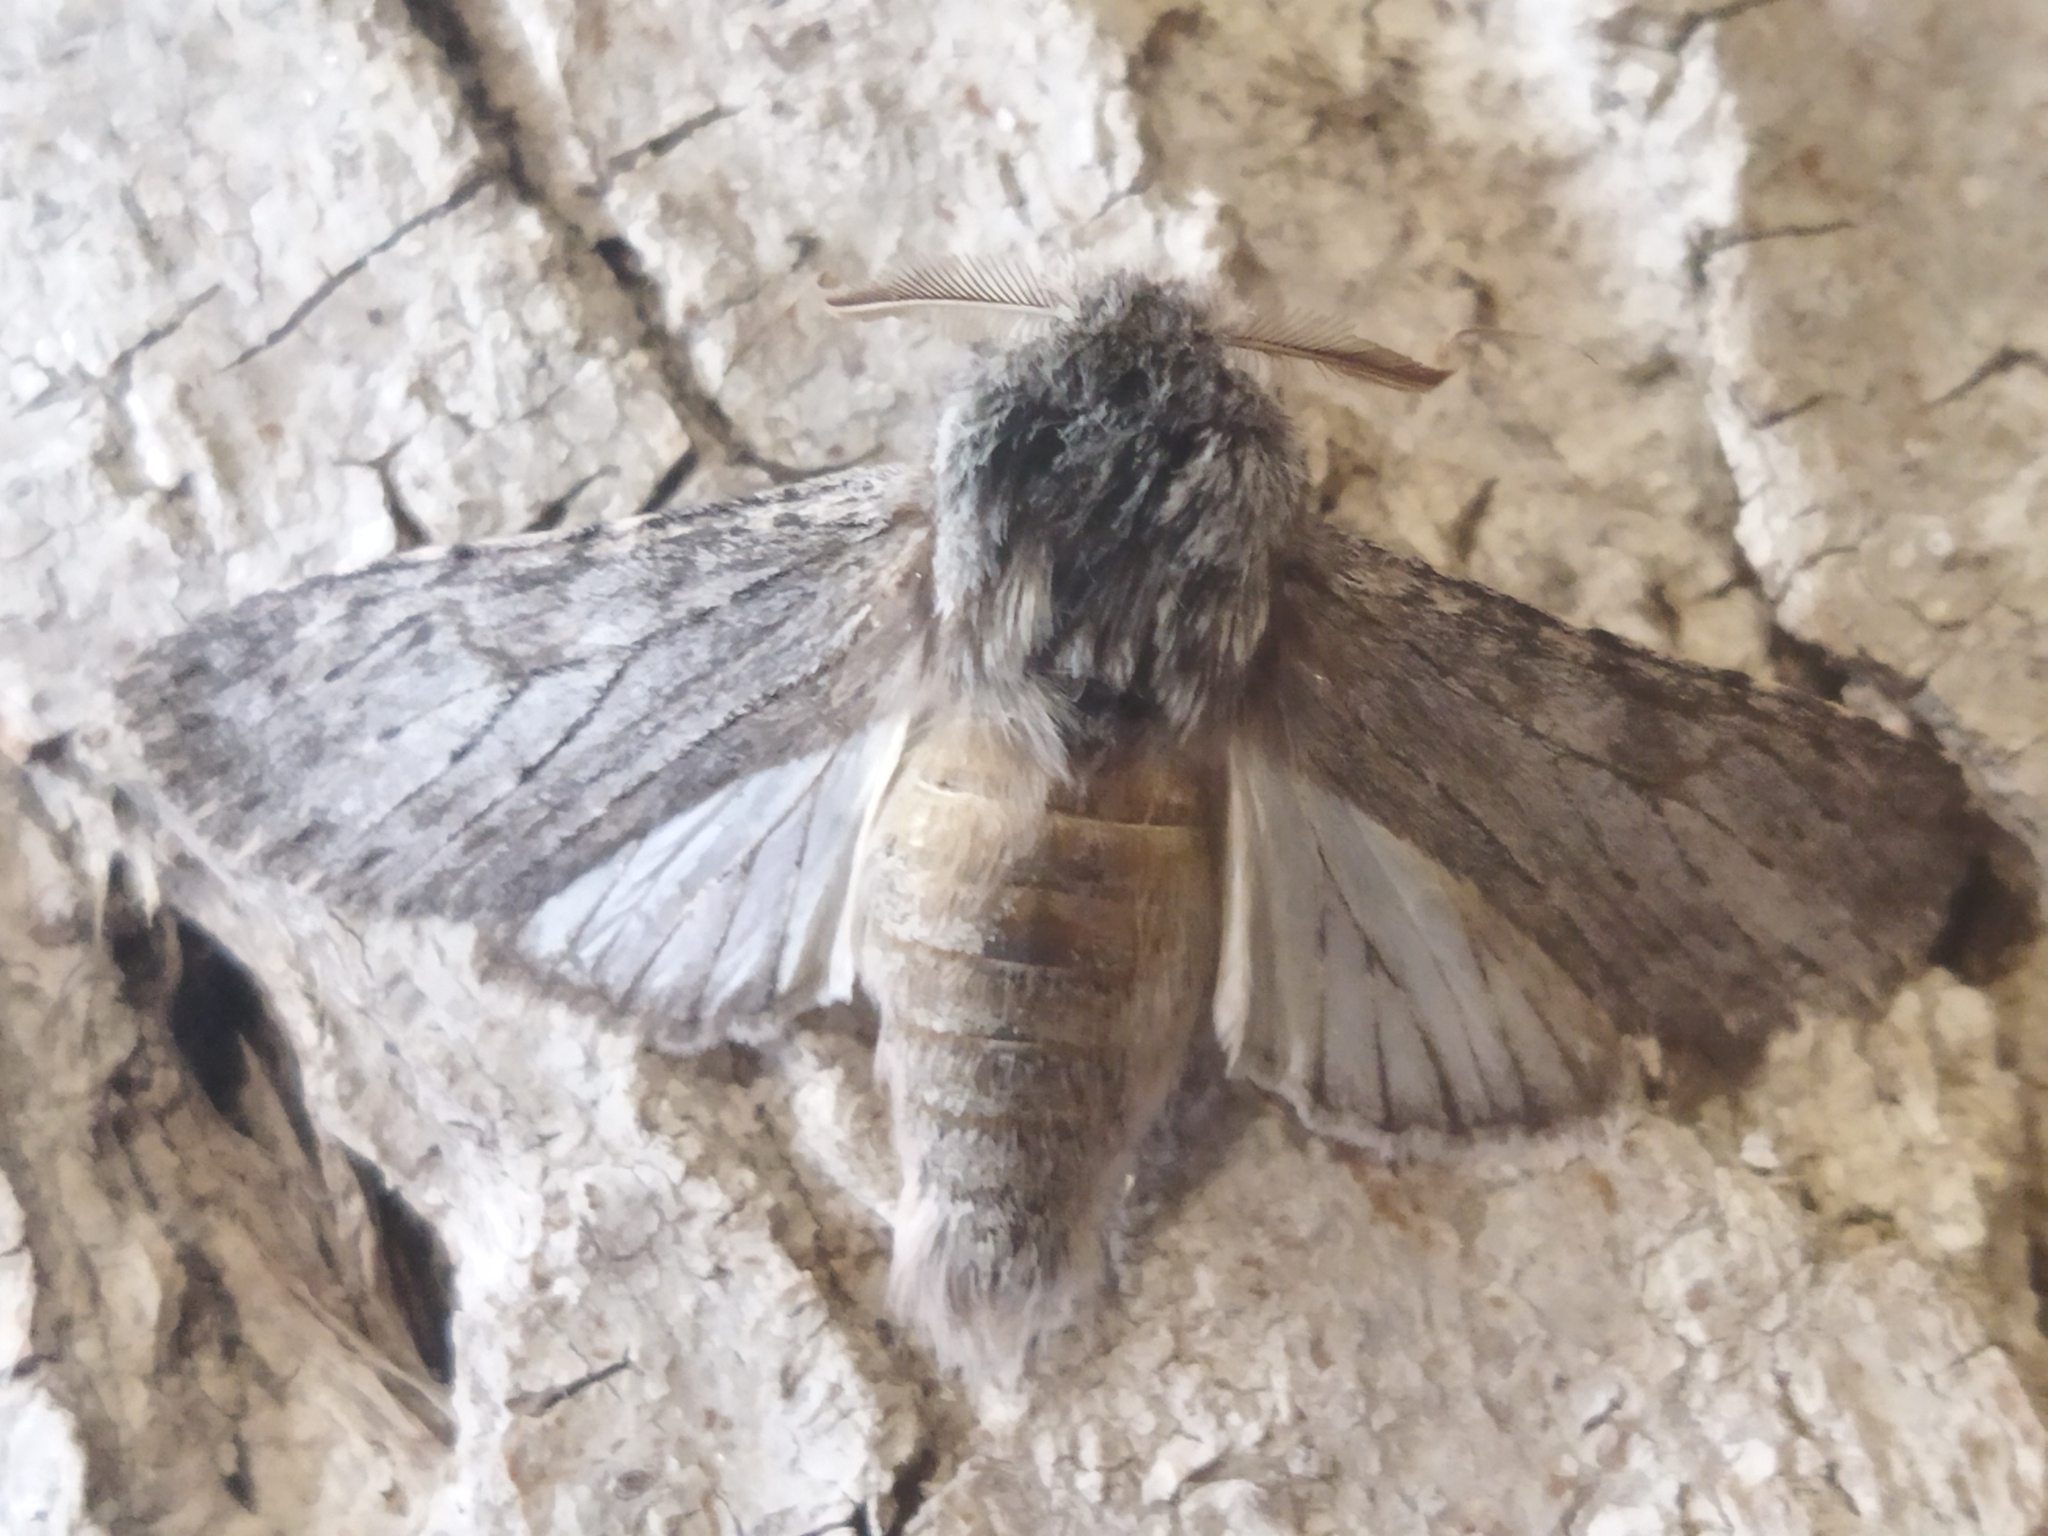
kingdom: Animalia
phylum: Arthropoda
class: Insecta
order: Lepidoptera
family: Notodontidae
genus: Dicranura
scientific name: Dicranura ulmi
